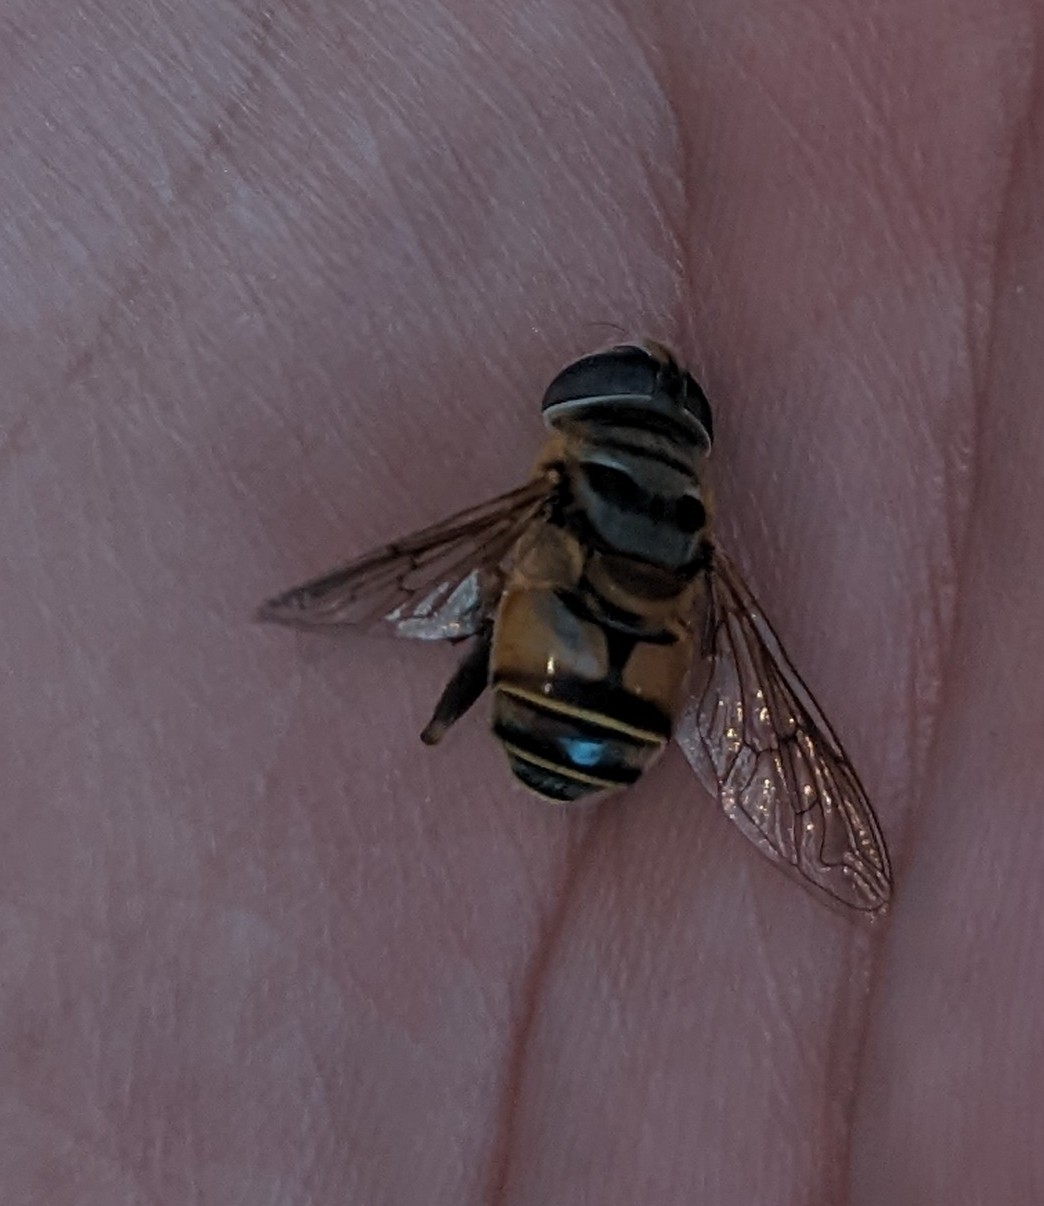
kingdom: Animalia
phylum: Arthropoda
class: Insecta
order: Diptera
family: Syrphidae
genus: Palpada
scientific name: Palpada vinetorum
